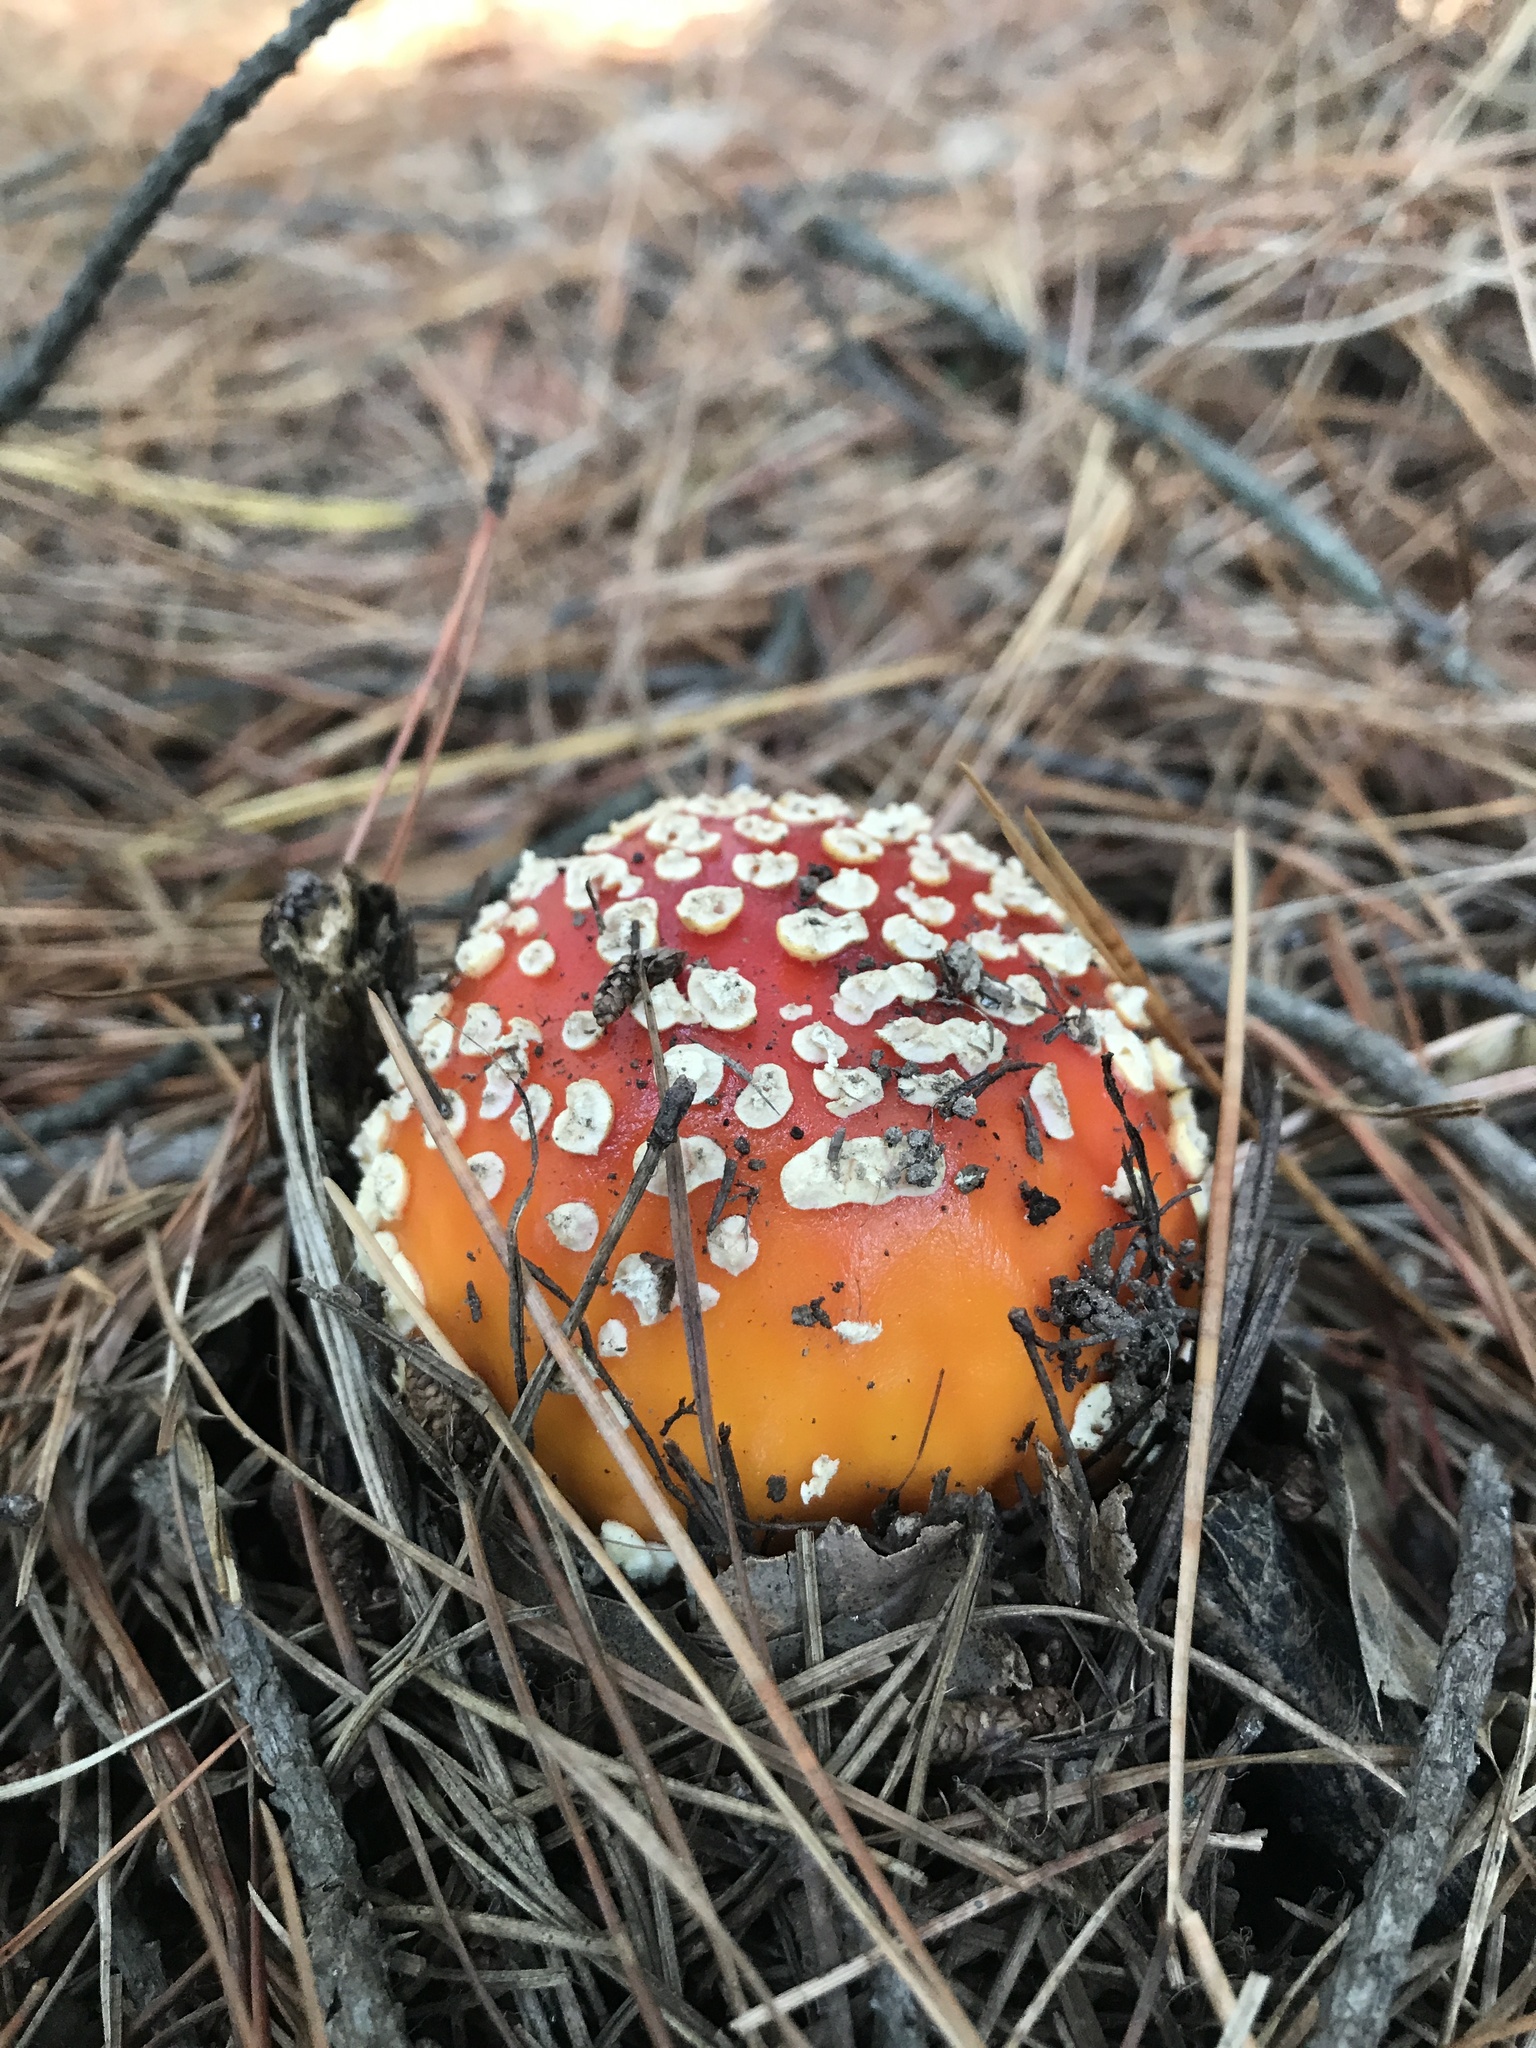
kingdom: Fungi
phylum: Basidiomycota
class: Agaricomycetes
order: Agaricales
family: Amanitaceae
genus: Amanita
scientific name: Amanita muscaria
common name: Fly agaric
